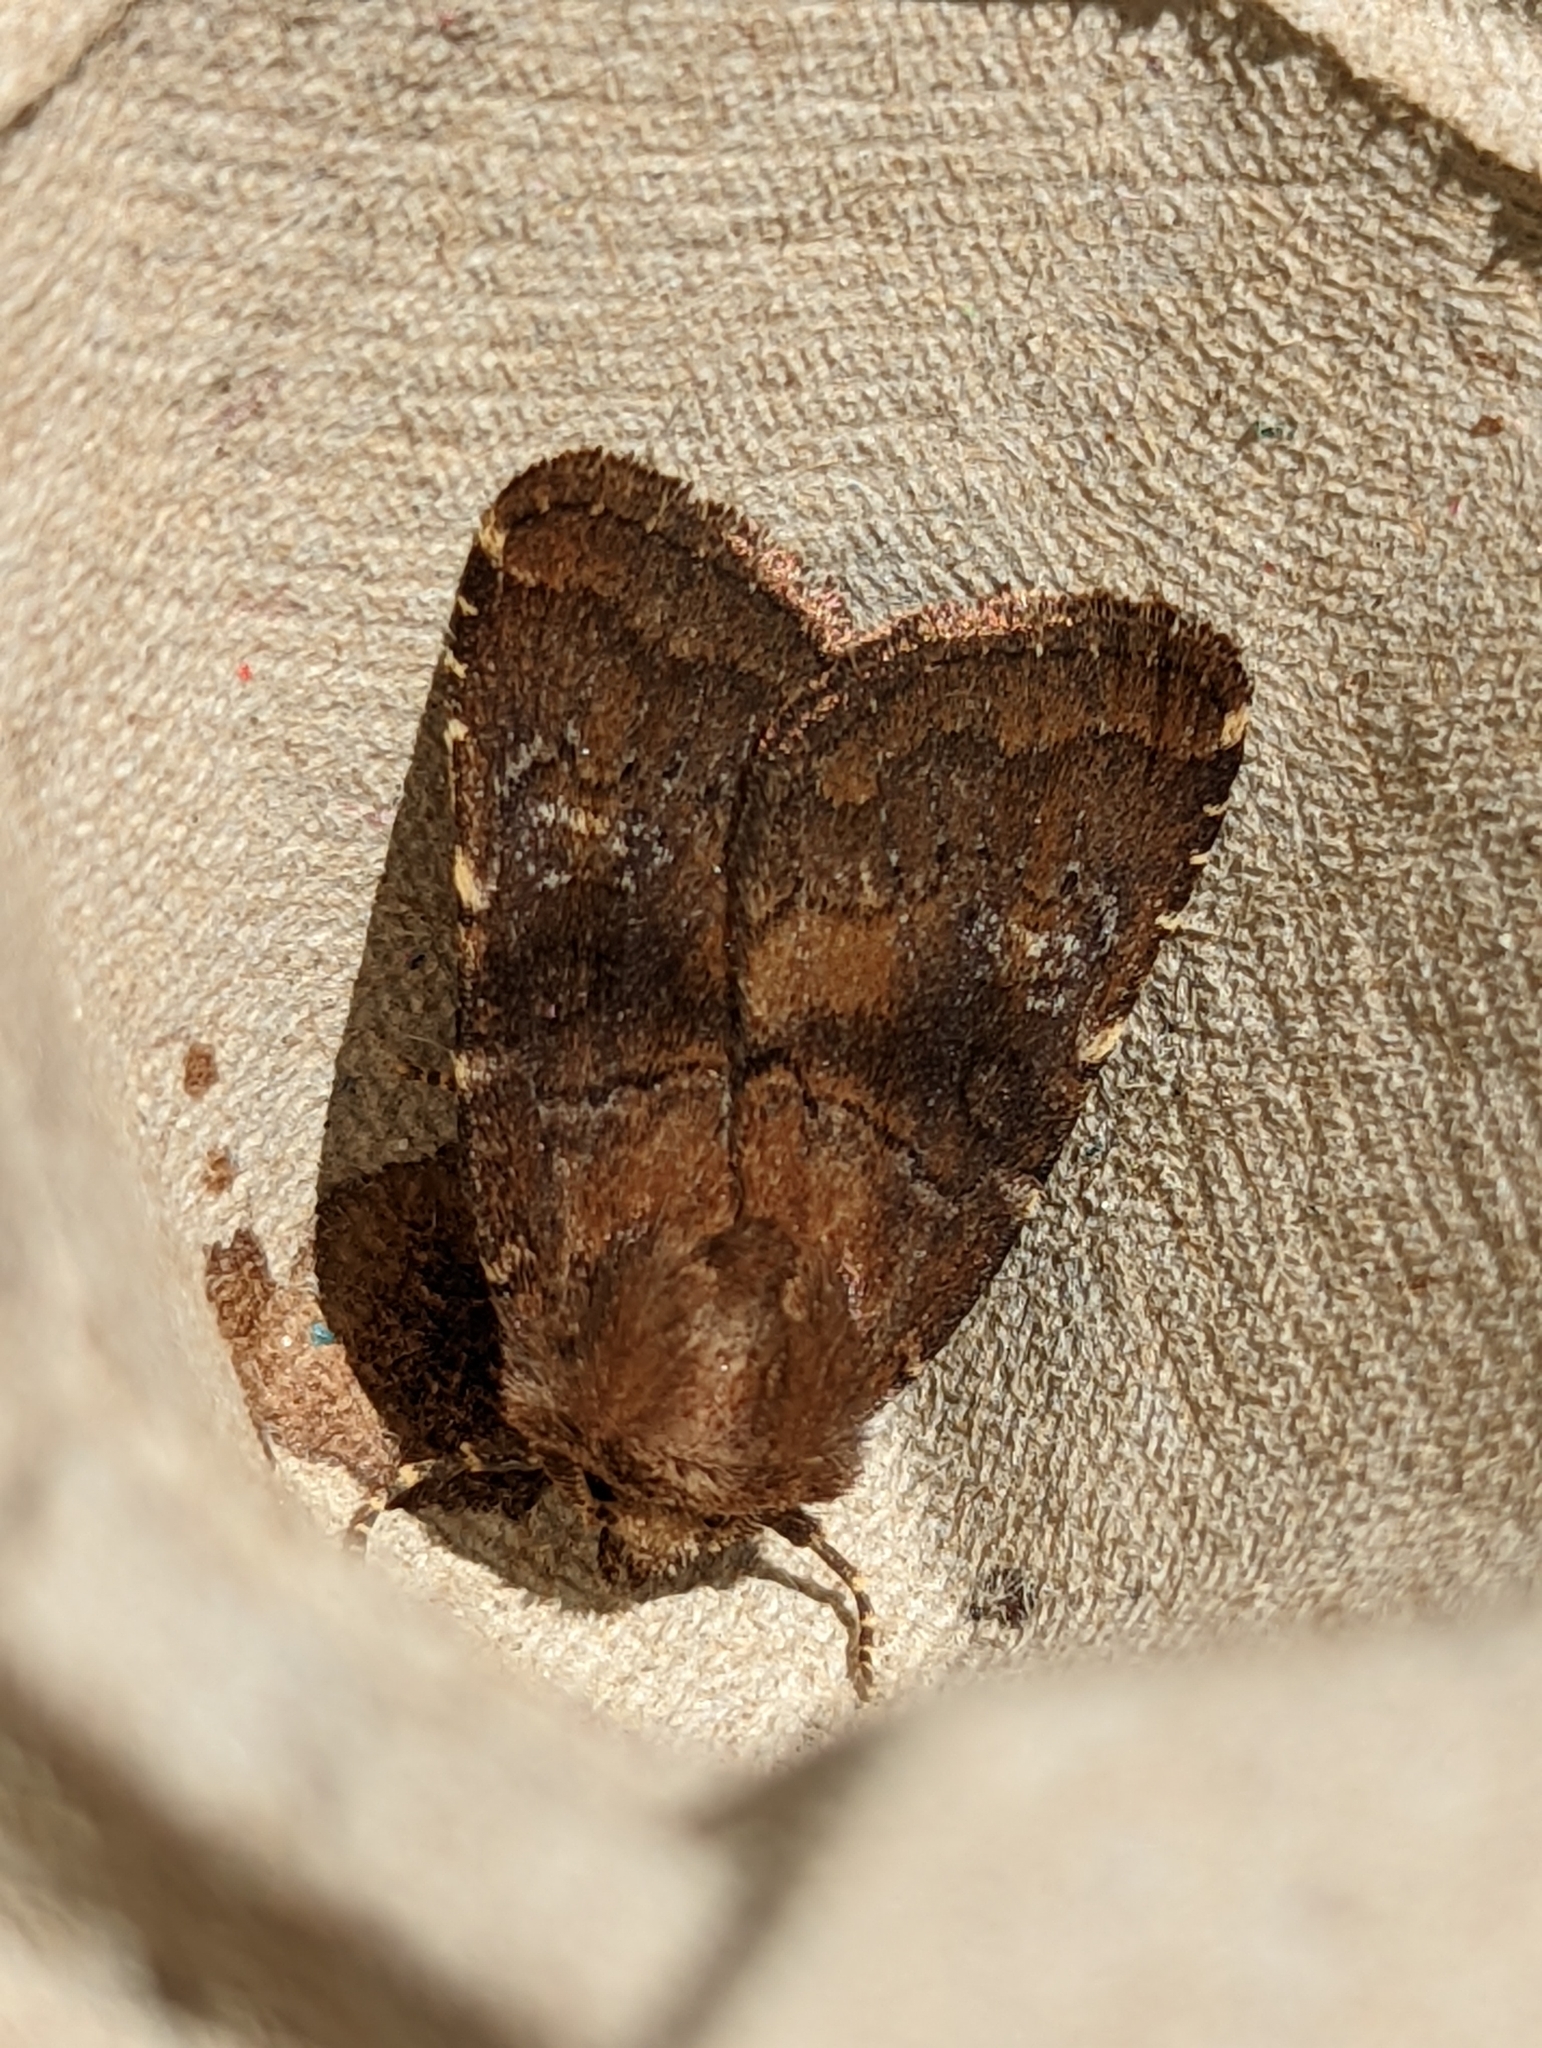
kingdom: Animalia
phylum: Arthropoda
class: Insecta
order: Lepidoptera
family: Noctuidae
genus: Charanyca
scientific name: Charanyca ferruginea
